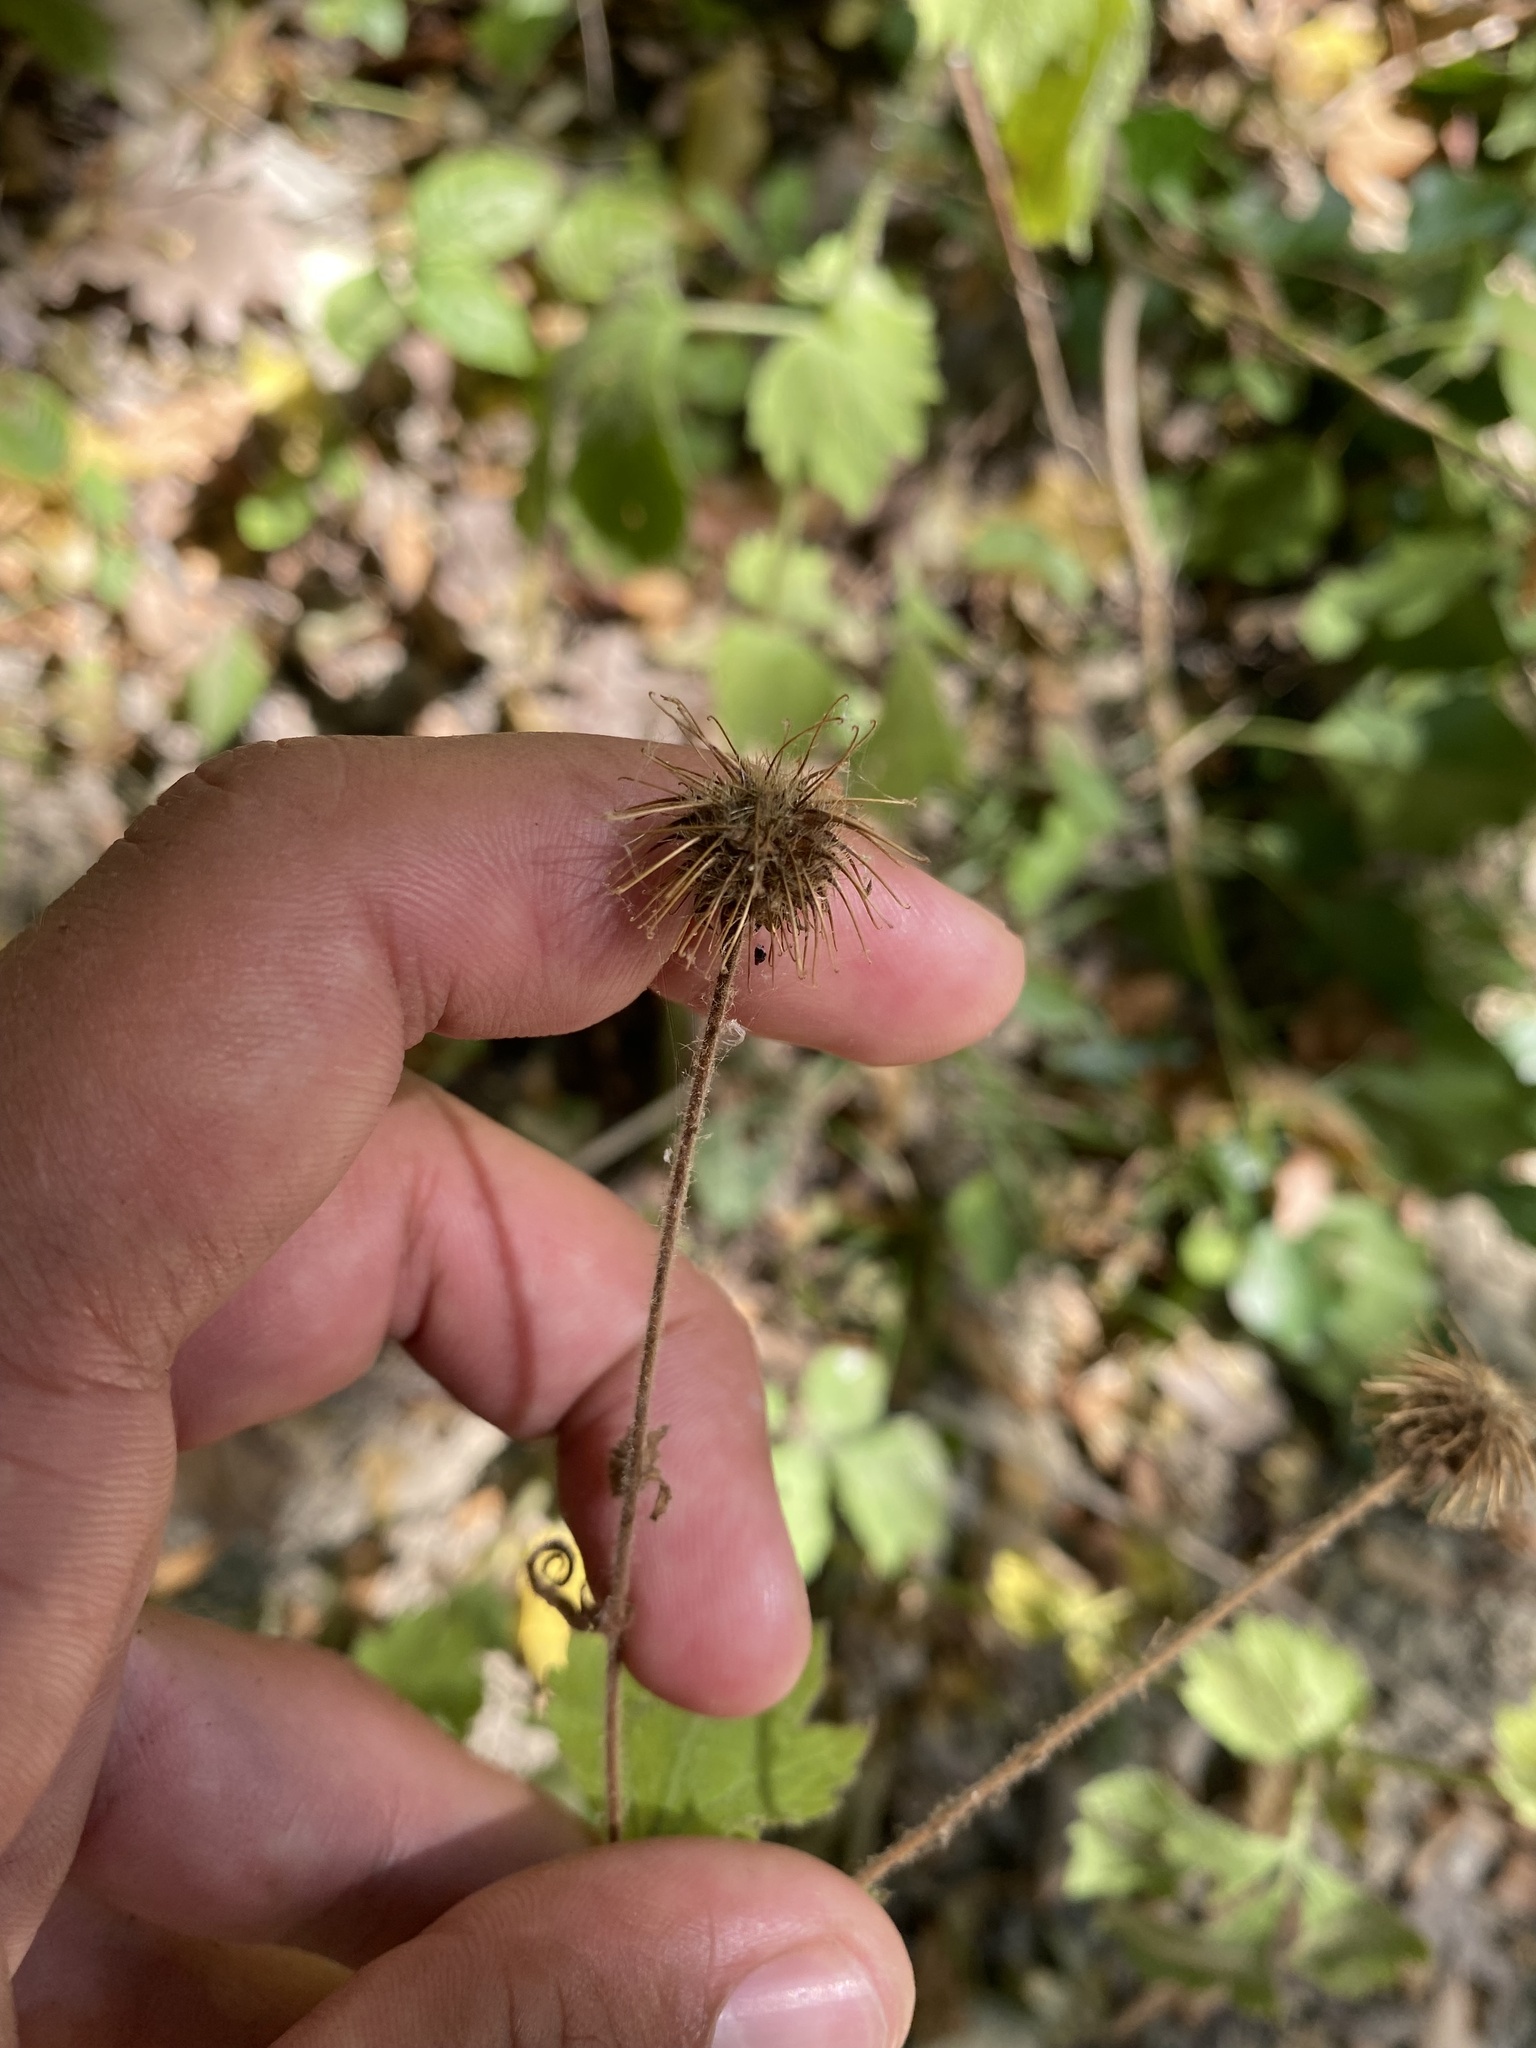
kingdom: Plantae
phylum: Tracheophyta
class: Magnoliopsida
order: Rosales
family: Rosaceae
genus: Geum
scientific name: Geum urbanum
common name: Wood avens
